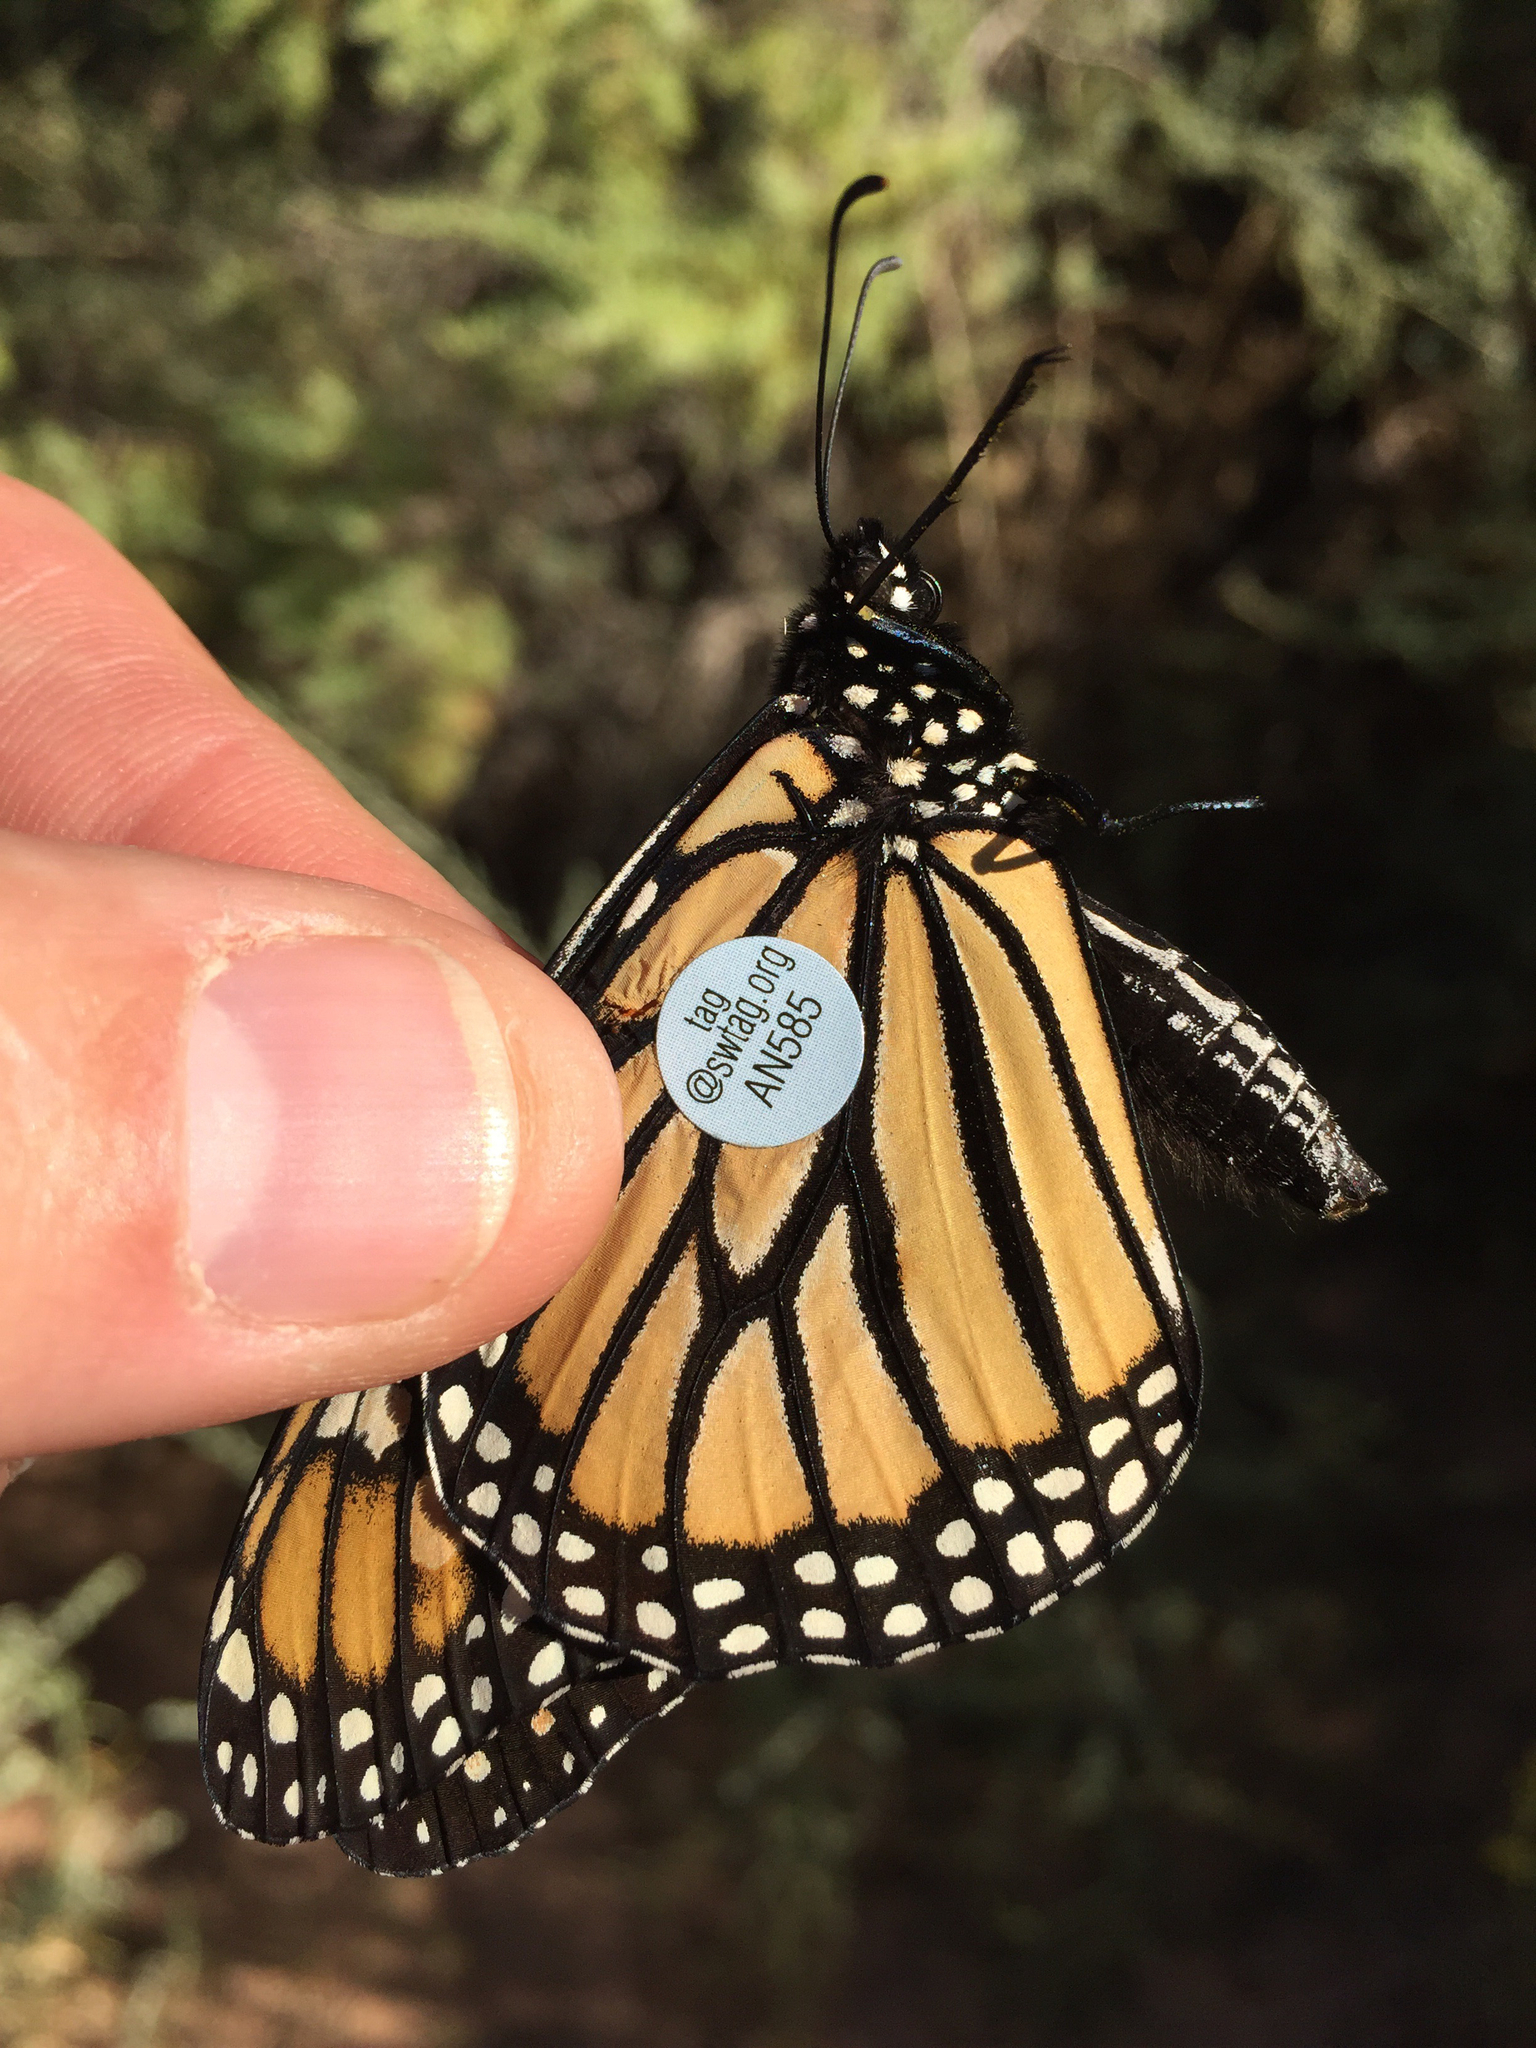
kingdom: Animalia
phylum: Arthropoda
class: Insecta
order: Lepidoptera
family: Nymphalidae
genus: Danaus
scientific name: Danaus plexippus
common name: Monarch
